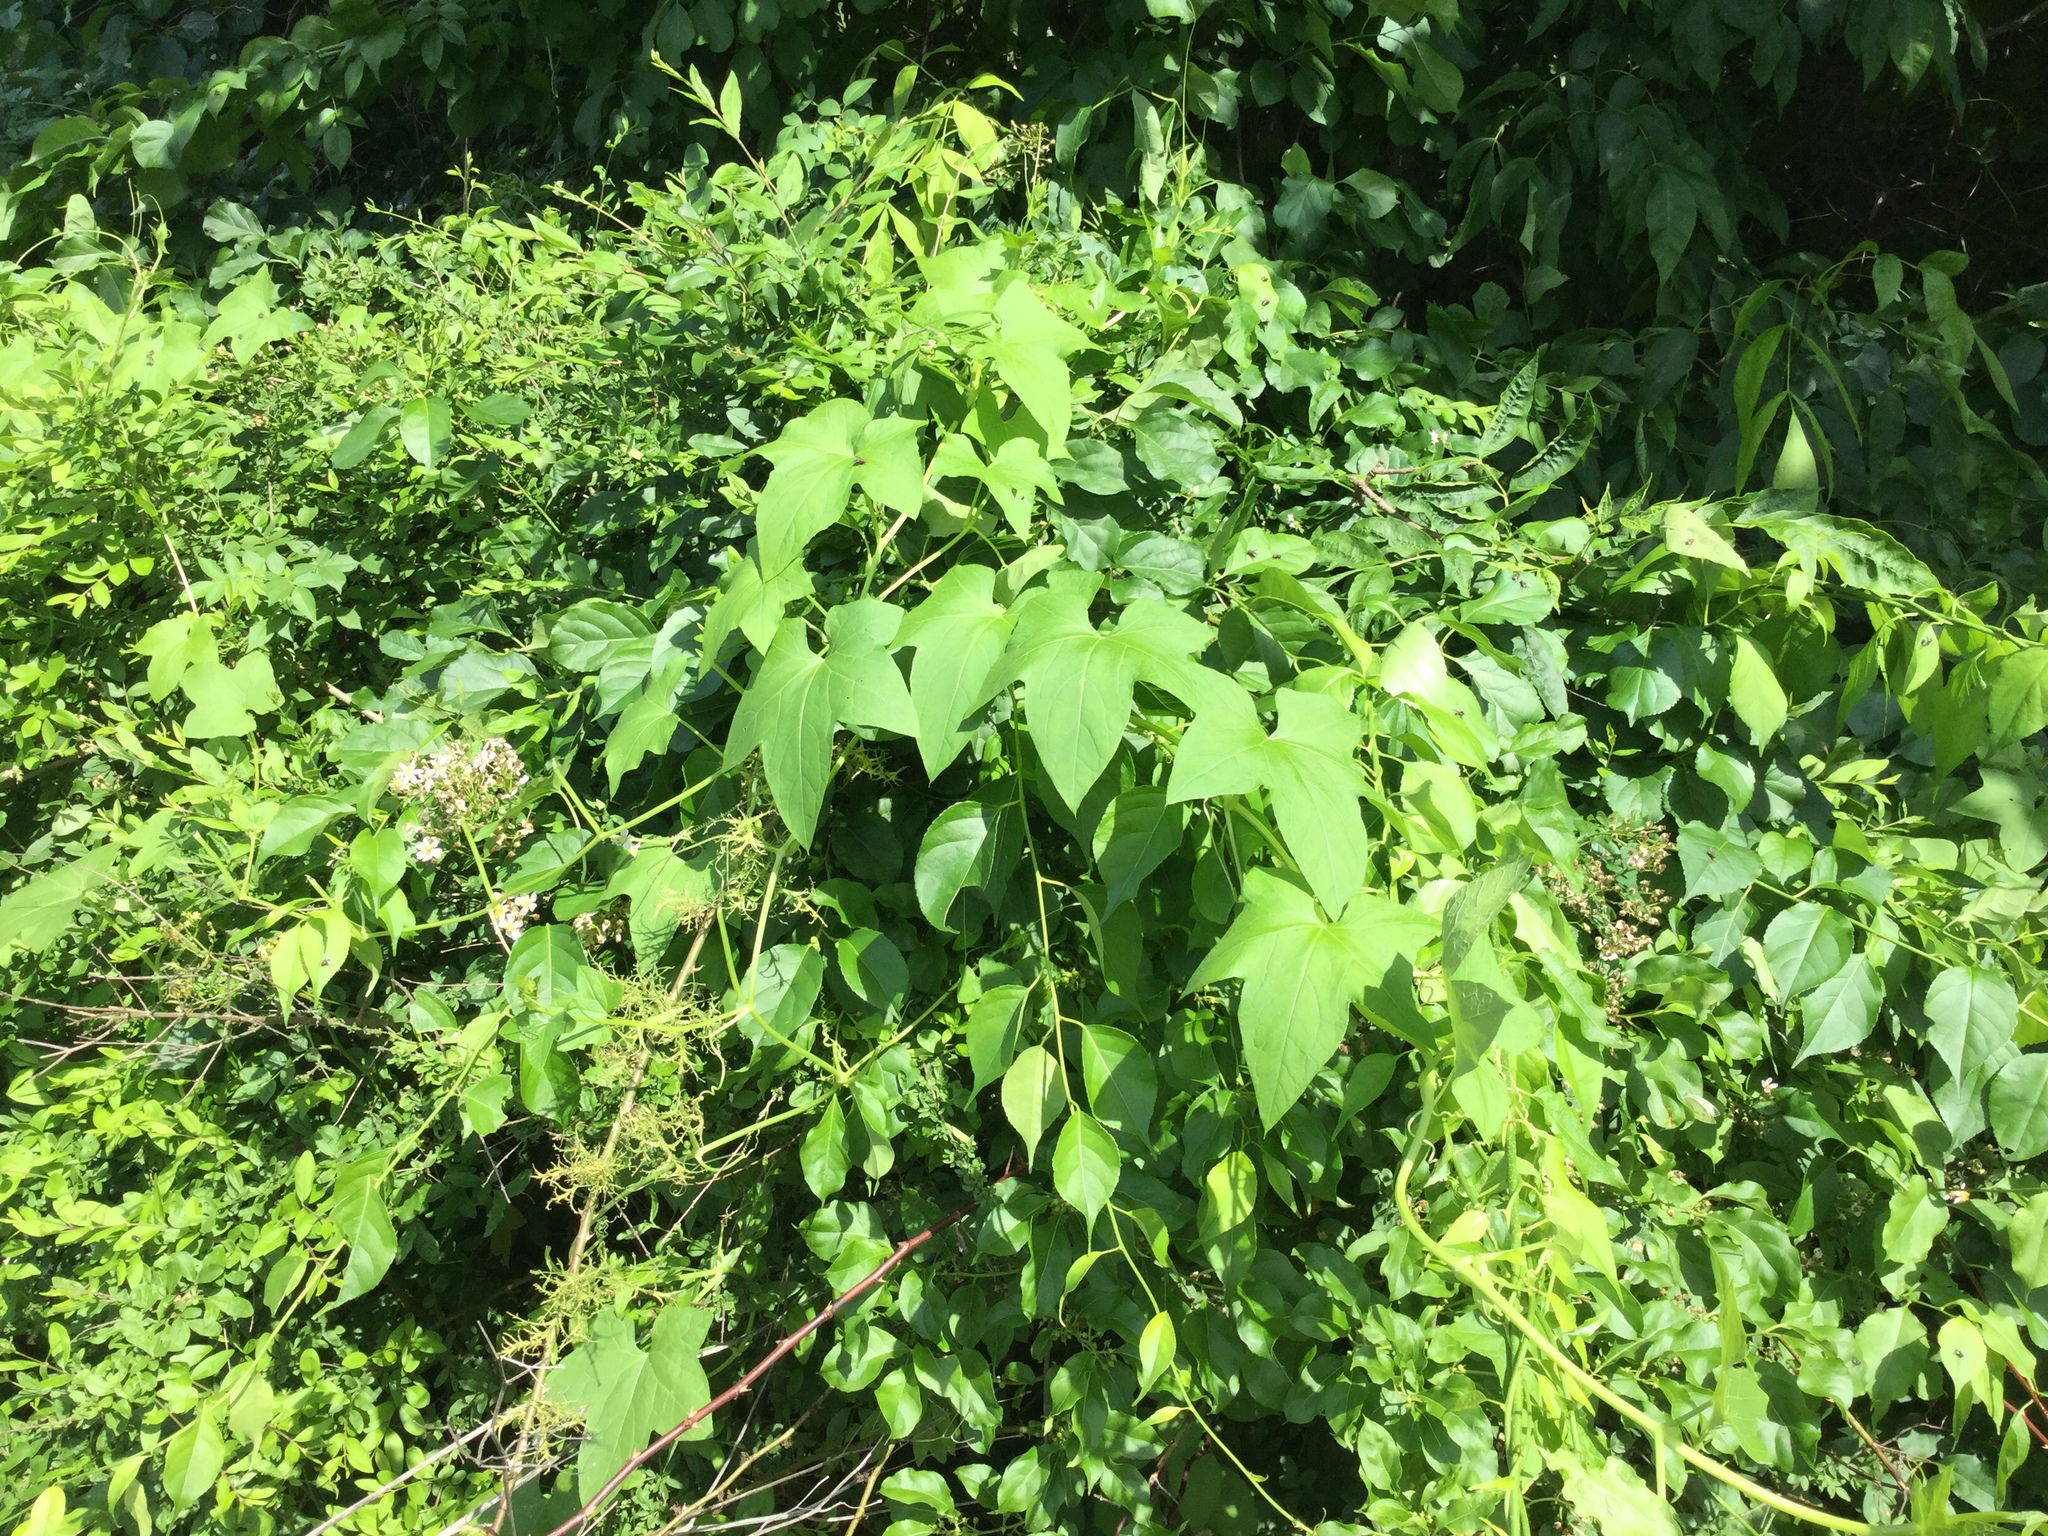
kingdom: Plantae
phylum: Tracheophyta
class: Magnoliopsida
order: Cucurbitales
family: Cucurbitaceae
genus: Echinocystis
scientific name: Echinocystis lobata
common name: Wild cucumber
